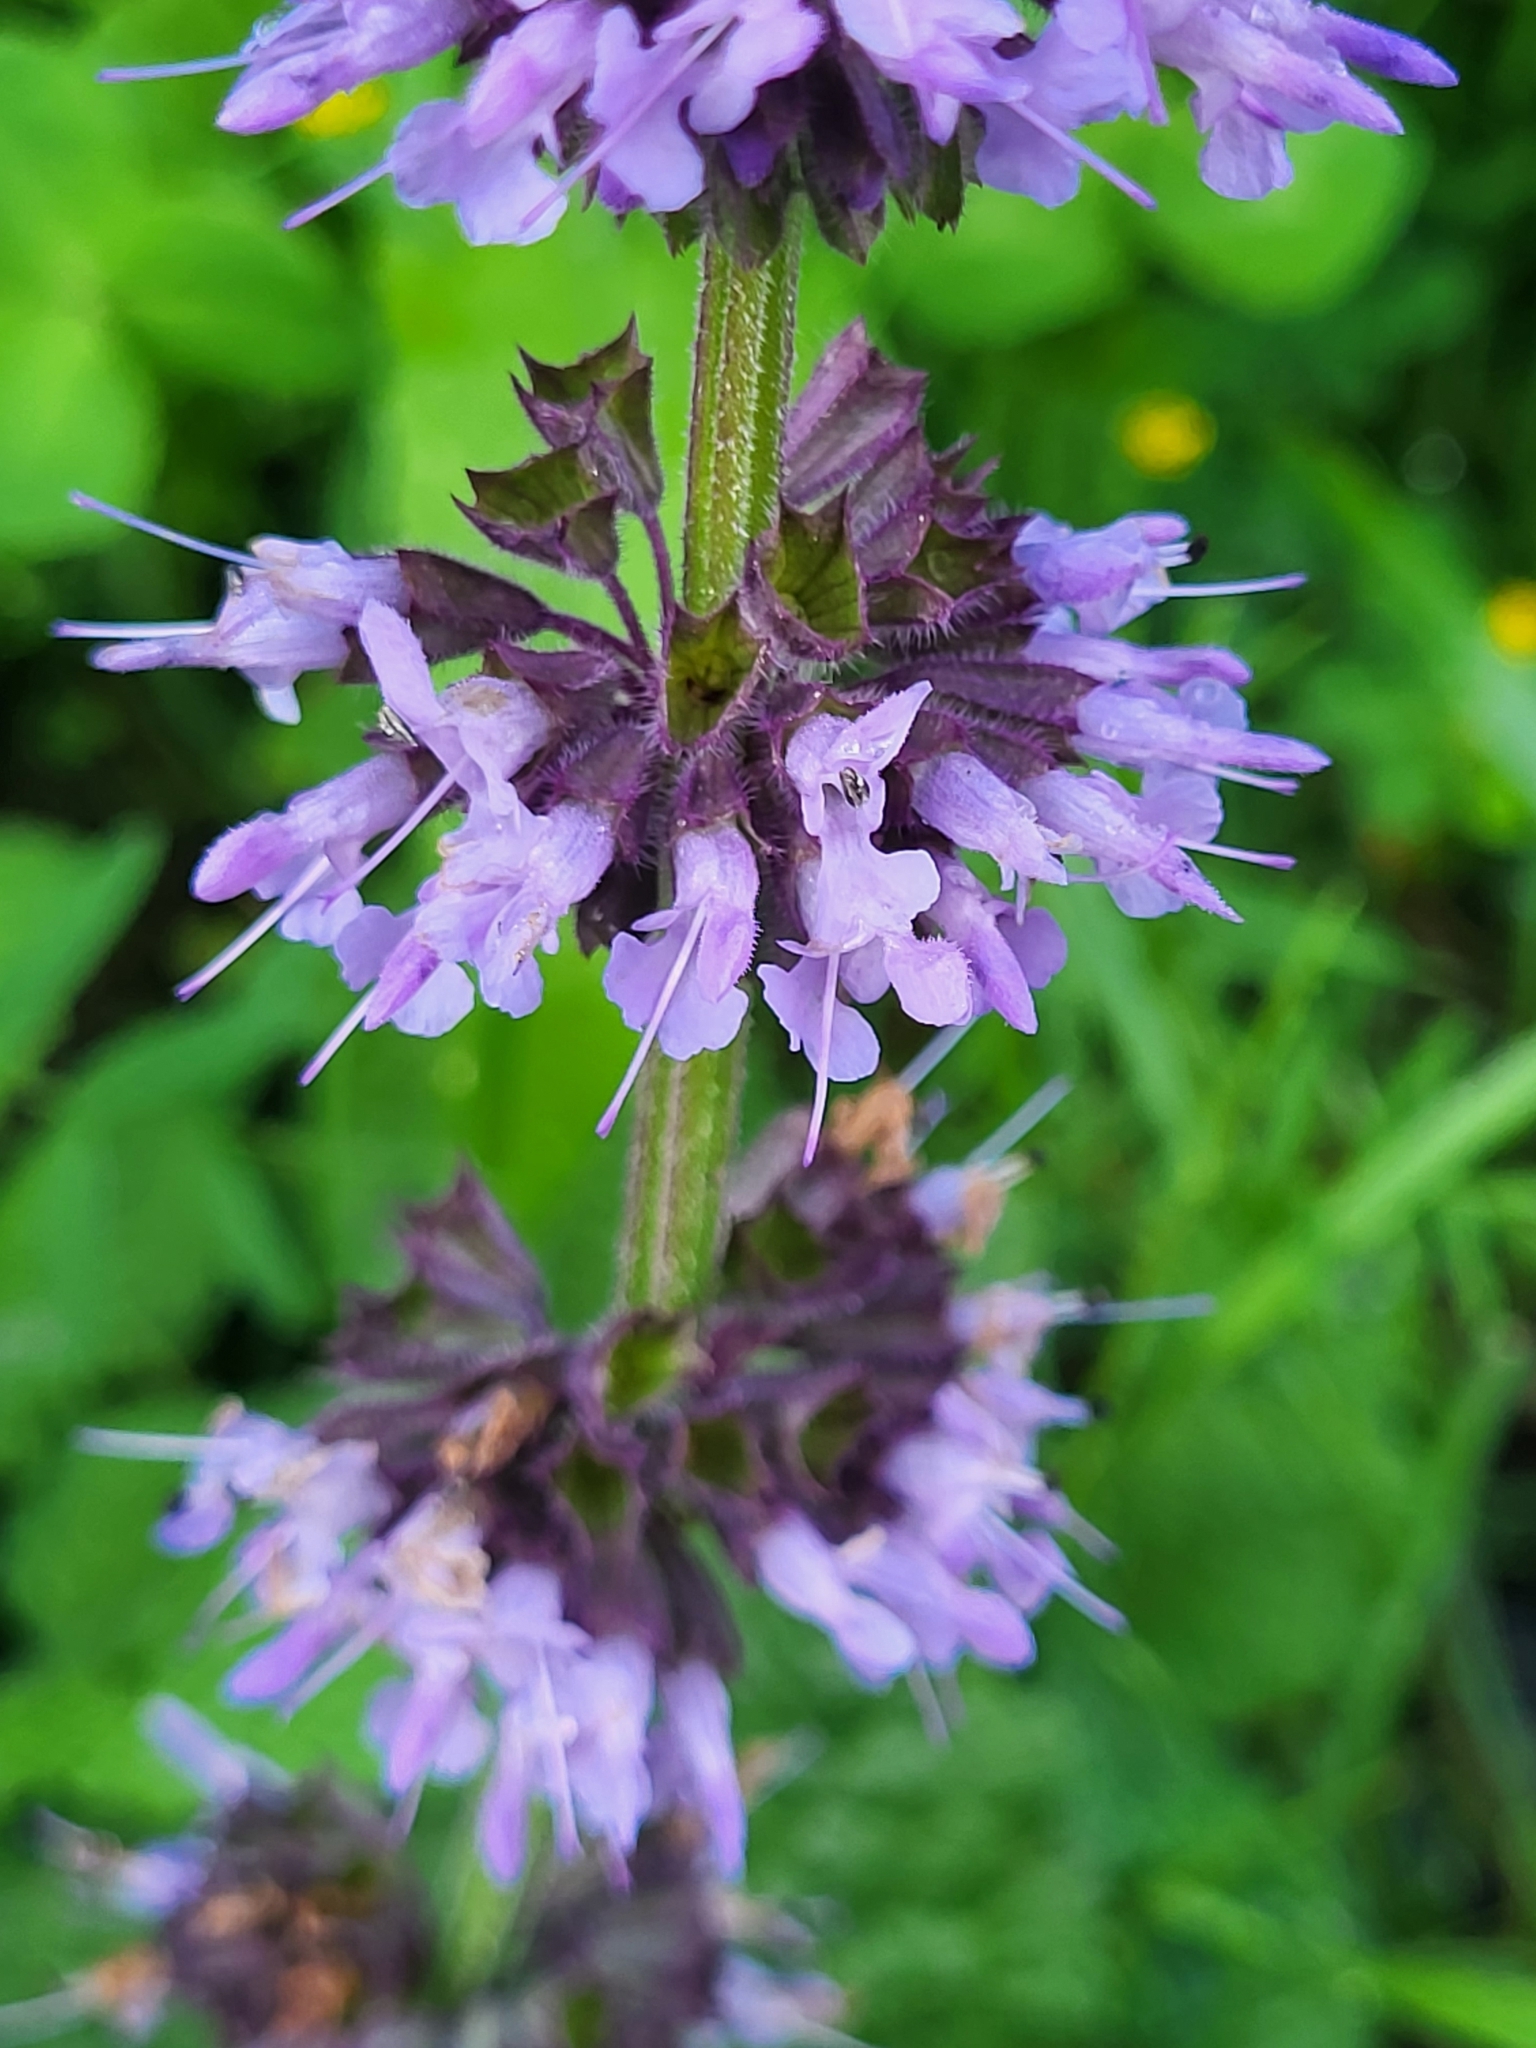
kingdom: Plantae
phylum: Tracheophyta
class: Magnoliopsida
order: Lamiales
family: Lamiaceae
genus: Salvia
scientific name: Salvia verticillata
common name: Whorled clary
